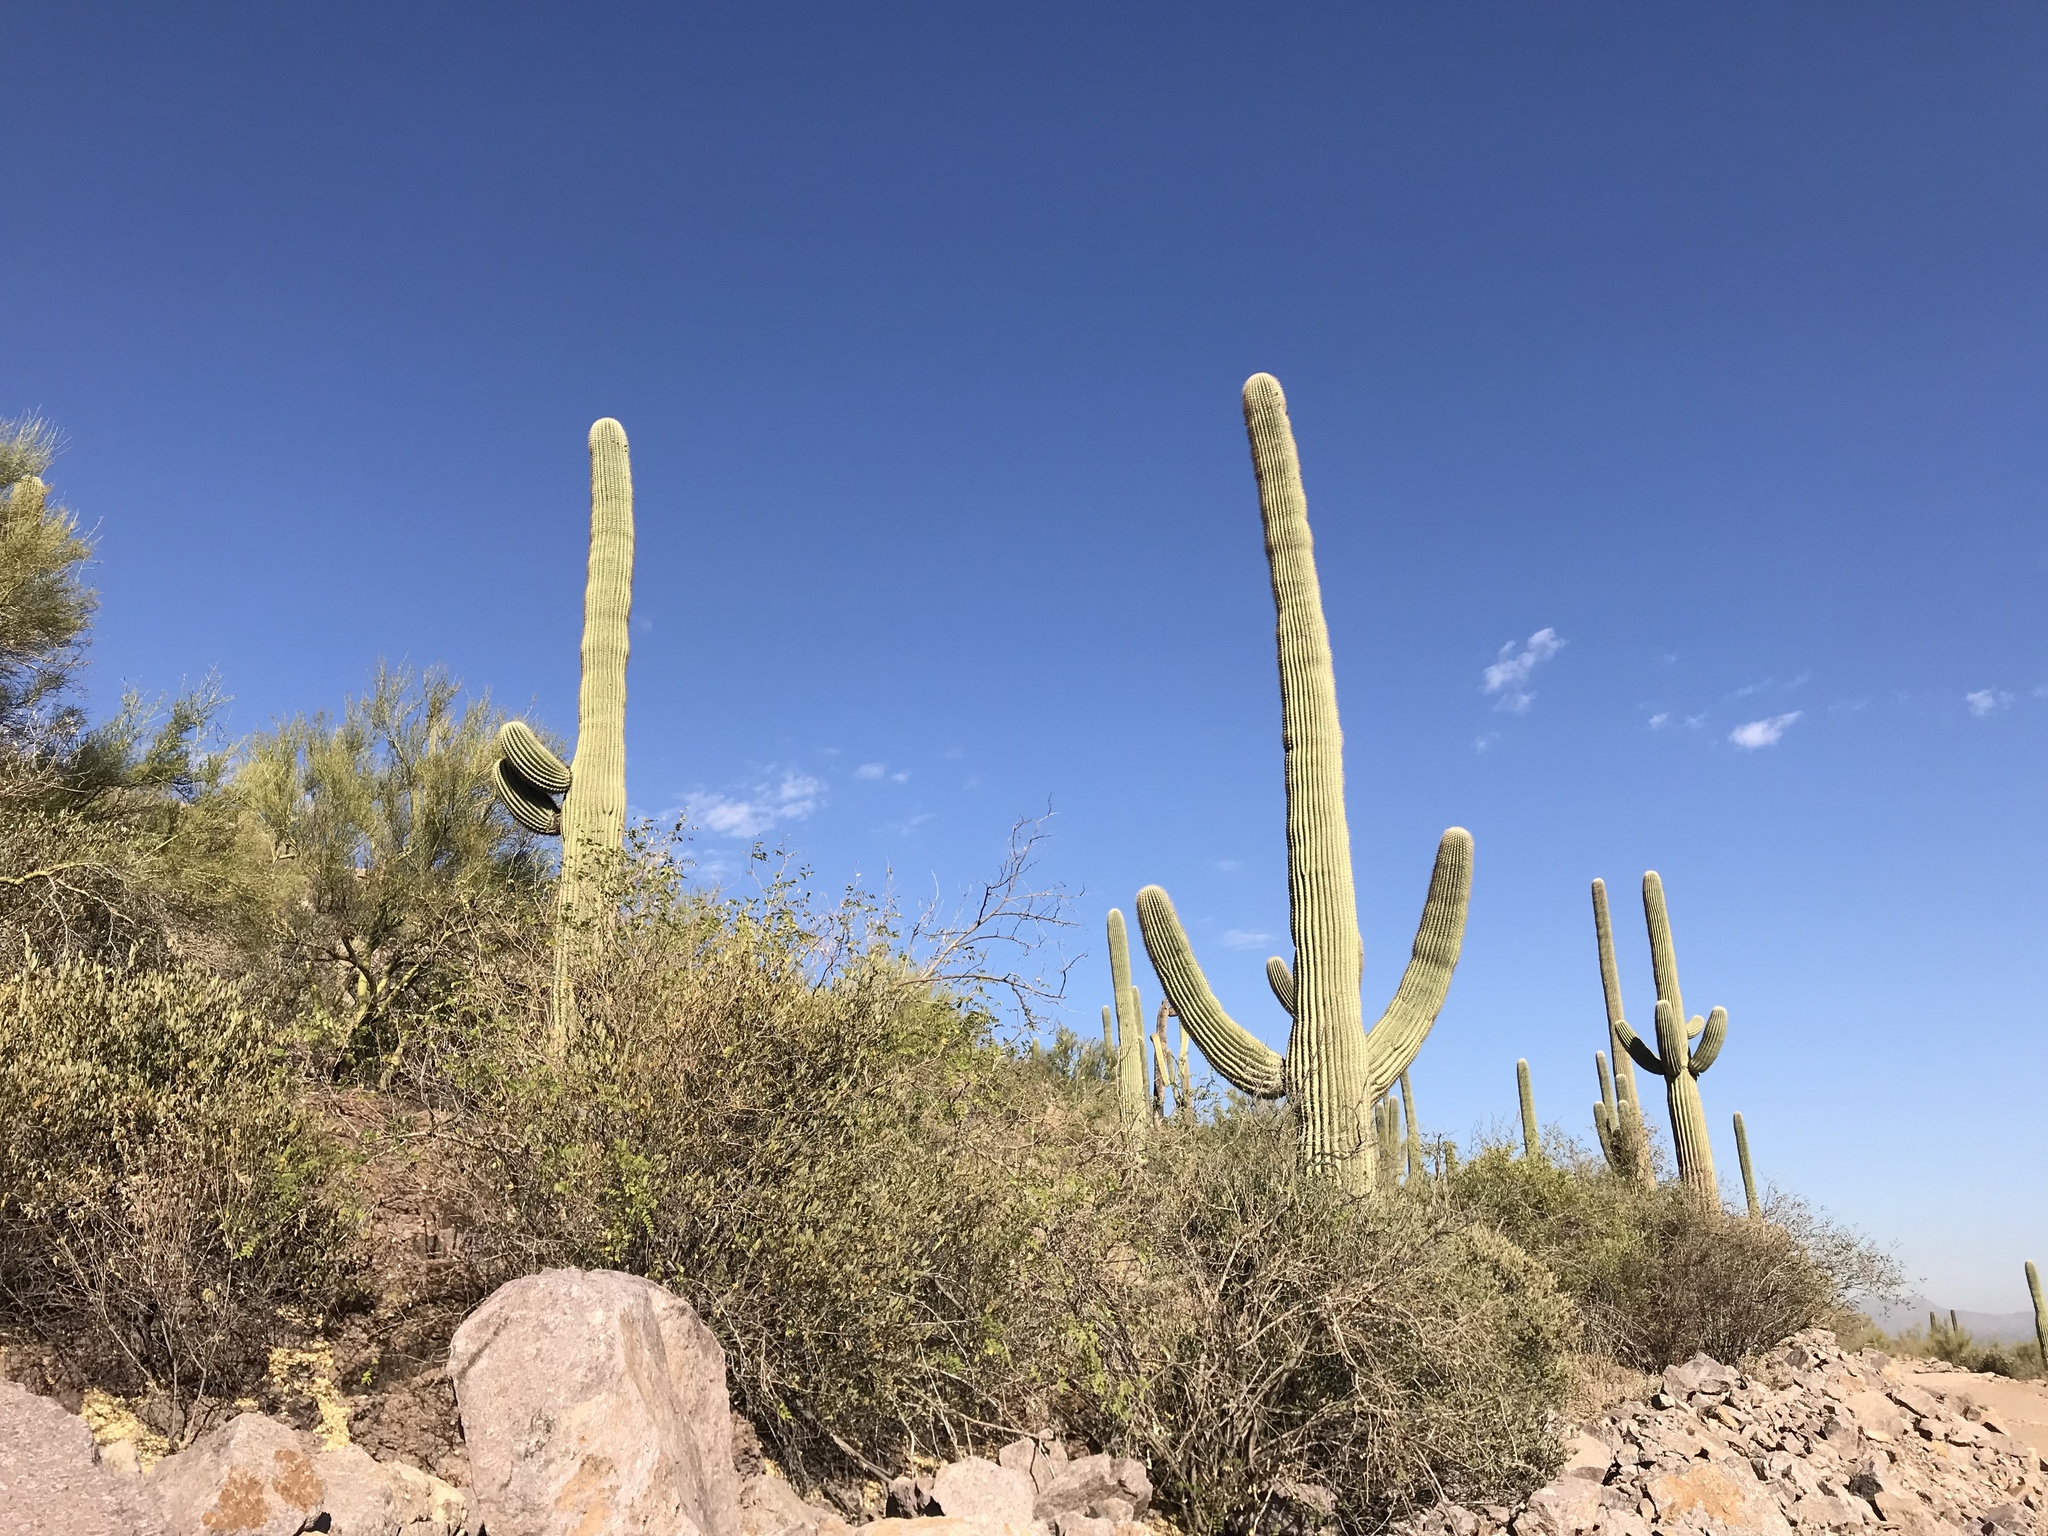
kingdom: Plantae
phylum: Tracheophyta
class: Magnoliopsida
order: Caryophyllales
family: Cactaceae
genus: Carnegiea
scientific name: Carnegiea gigantea
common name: Saguaro
